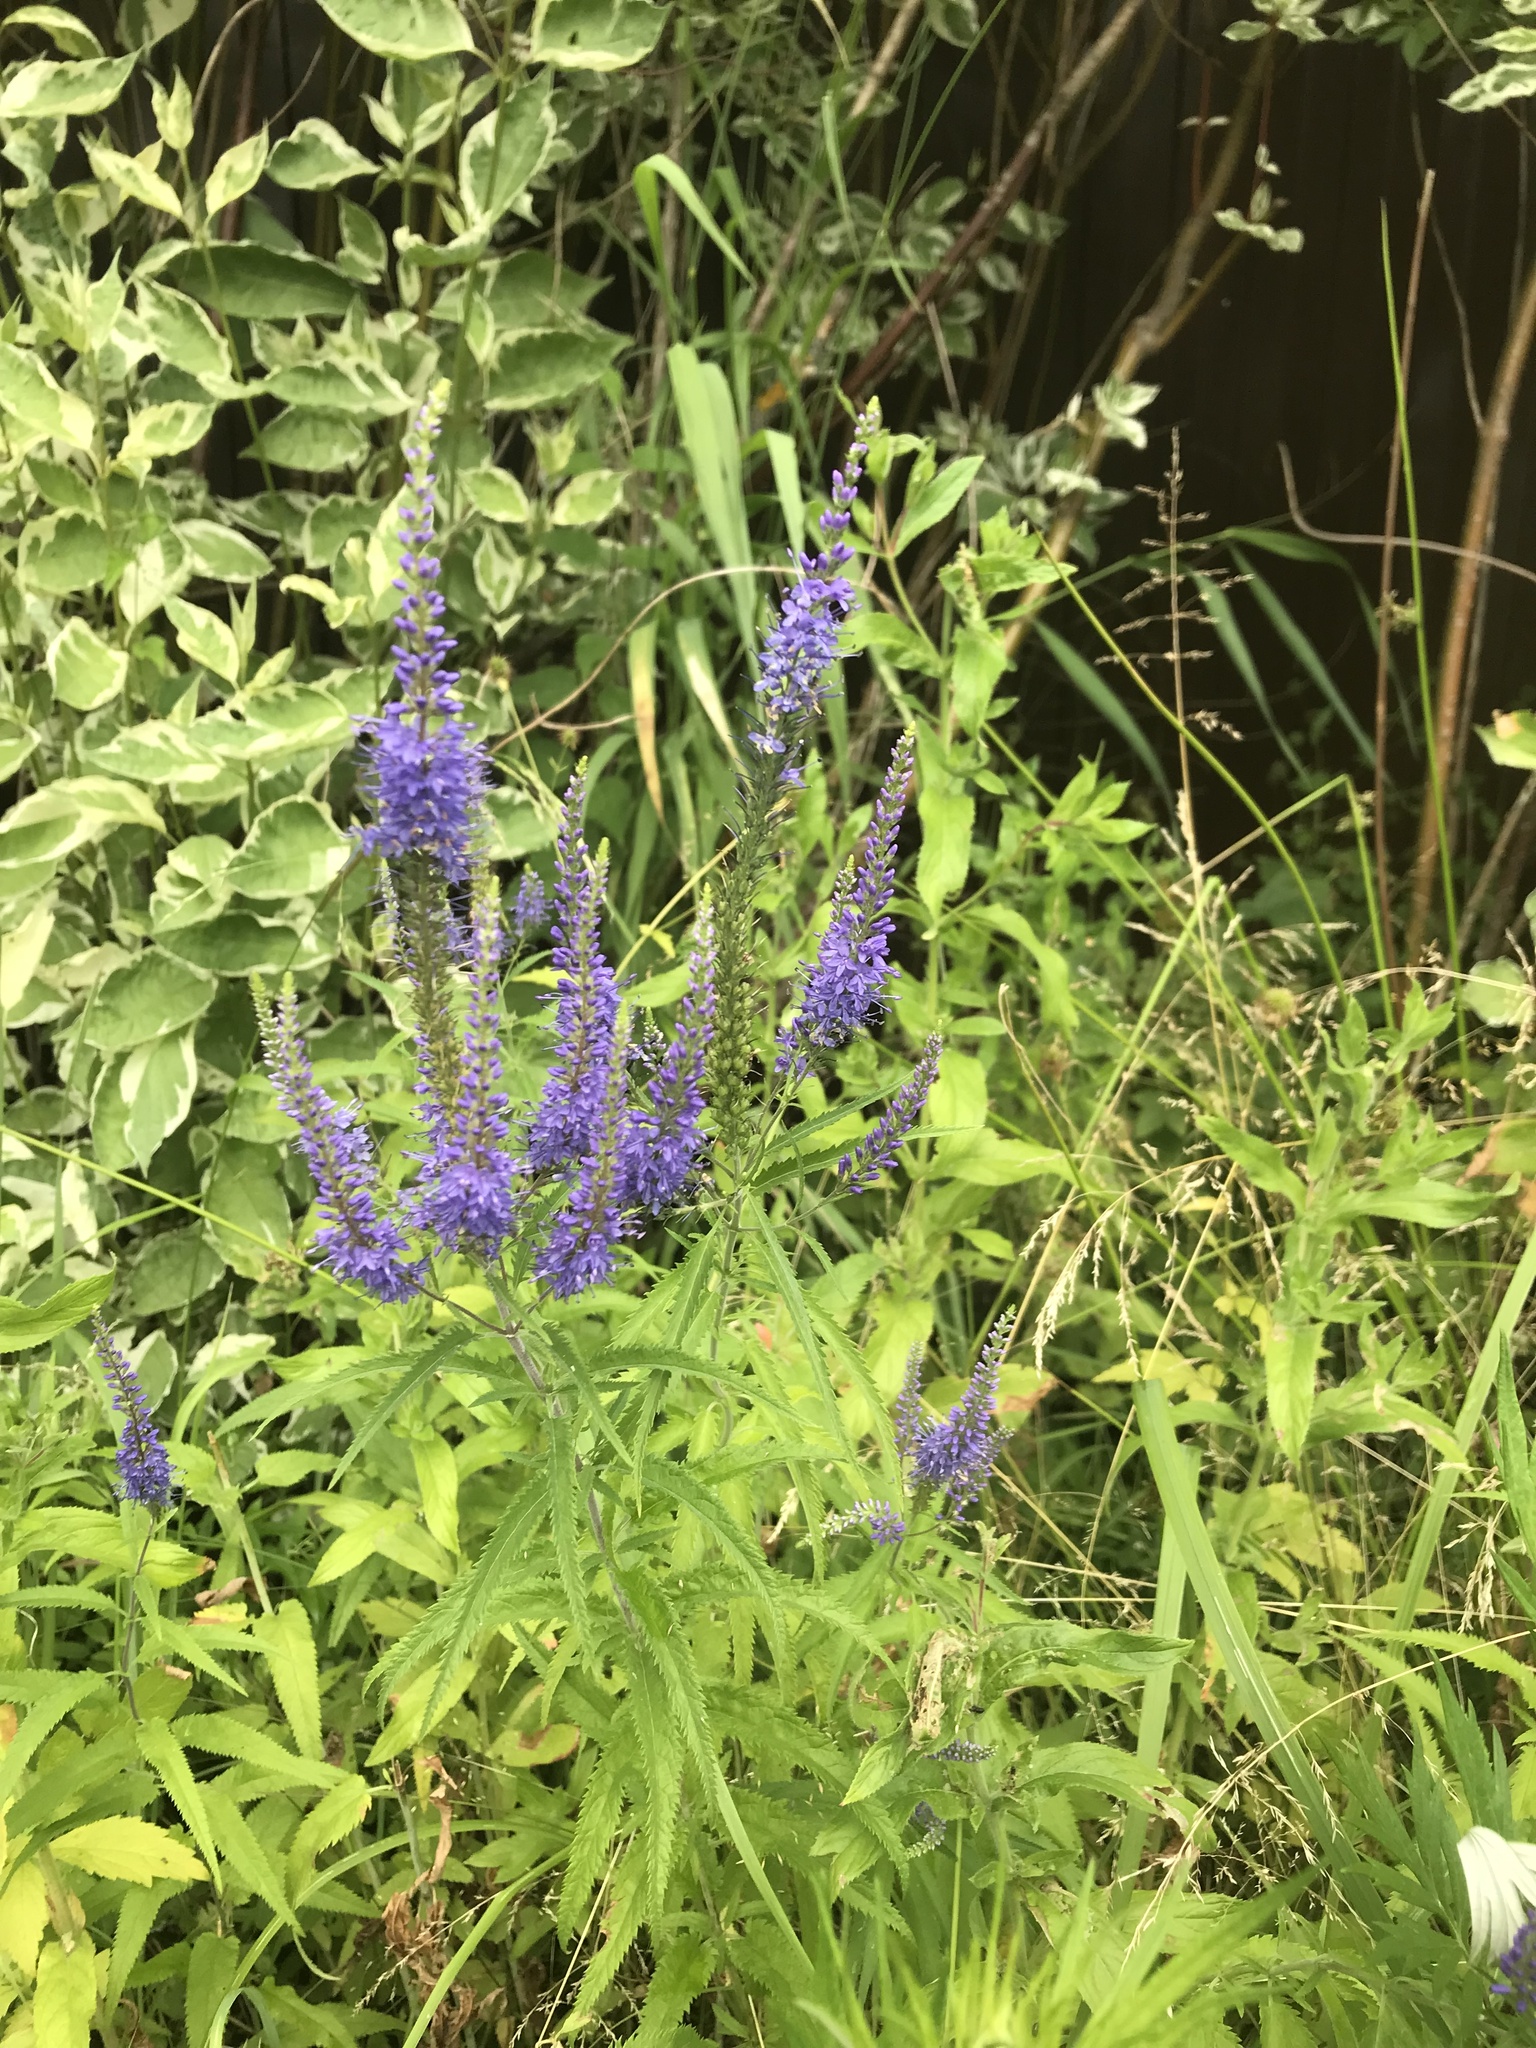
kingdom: Plantae
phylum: Tracheophyta
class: Magnoliopsida
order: Lamiales
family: Plantaginaceae
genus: Veronica
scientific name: Veronica longifolia
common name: Garden speedwell
